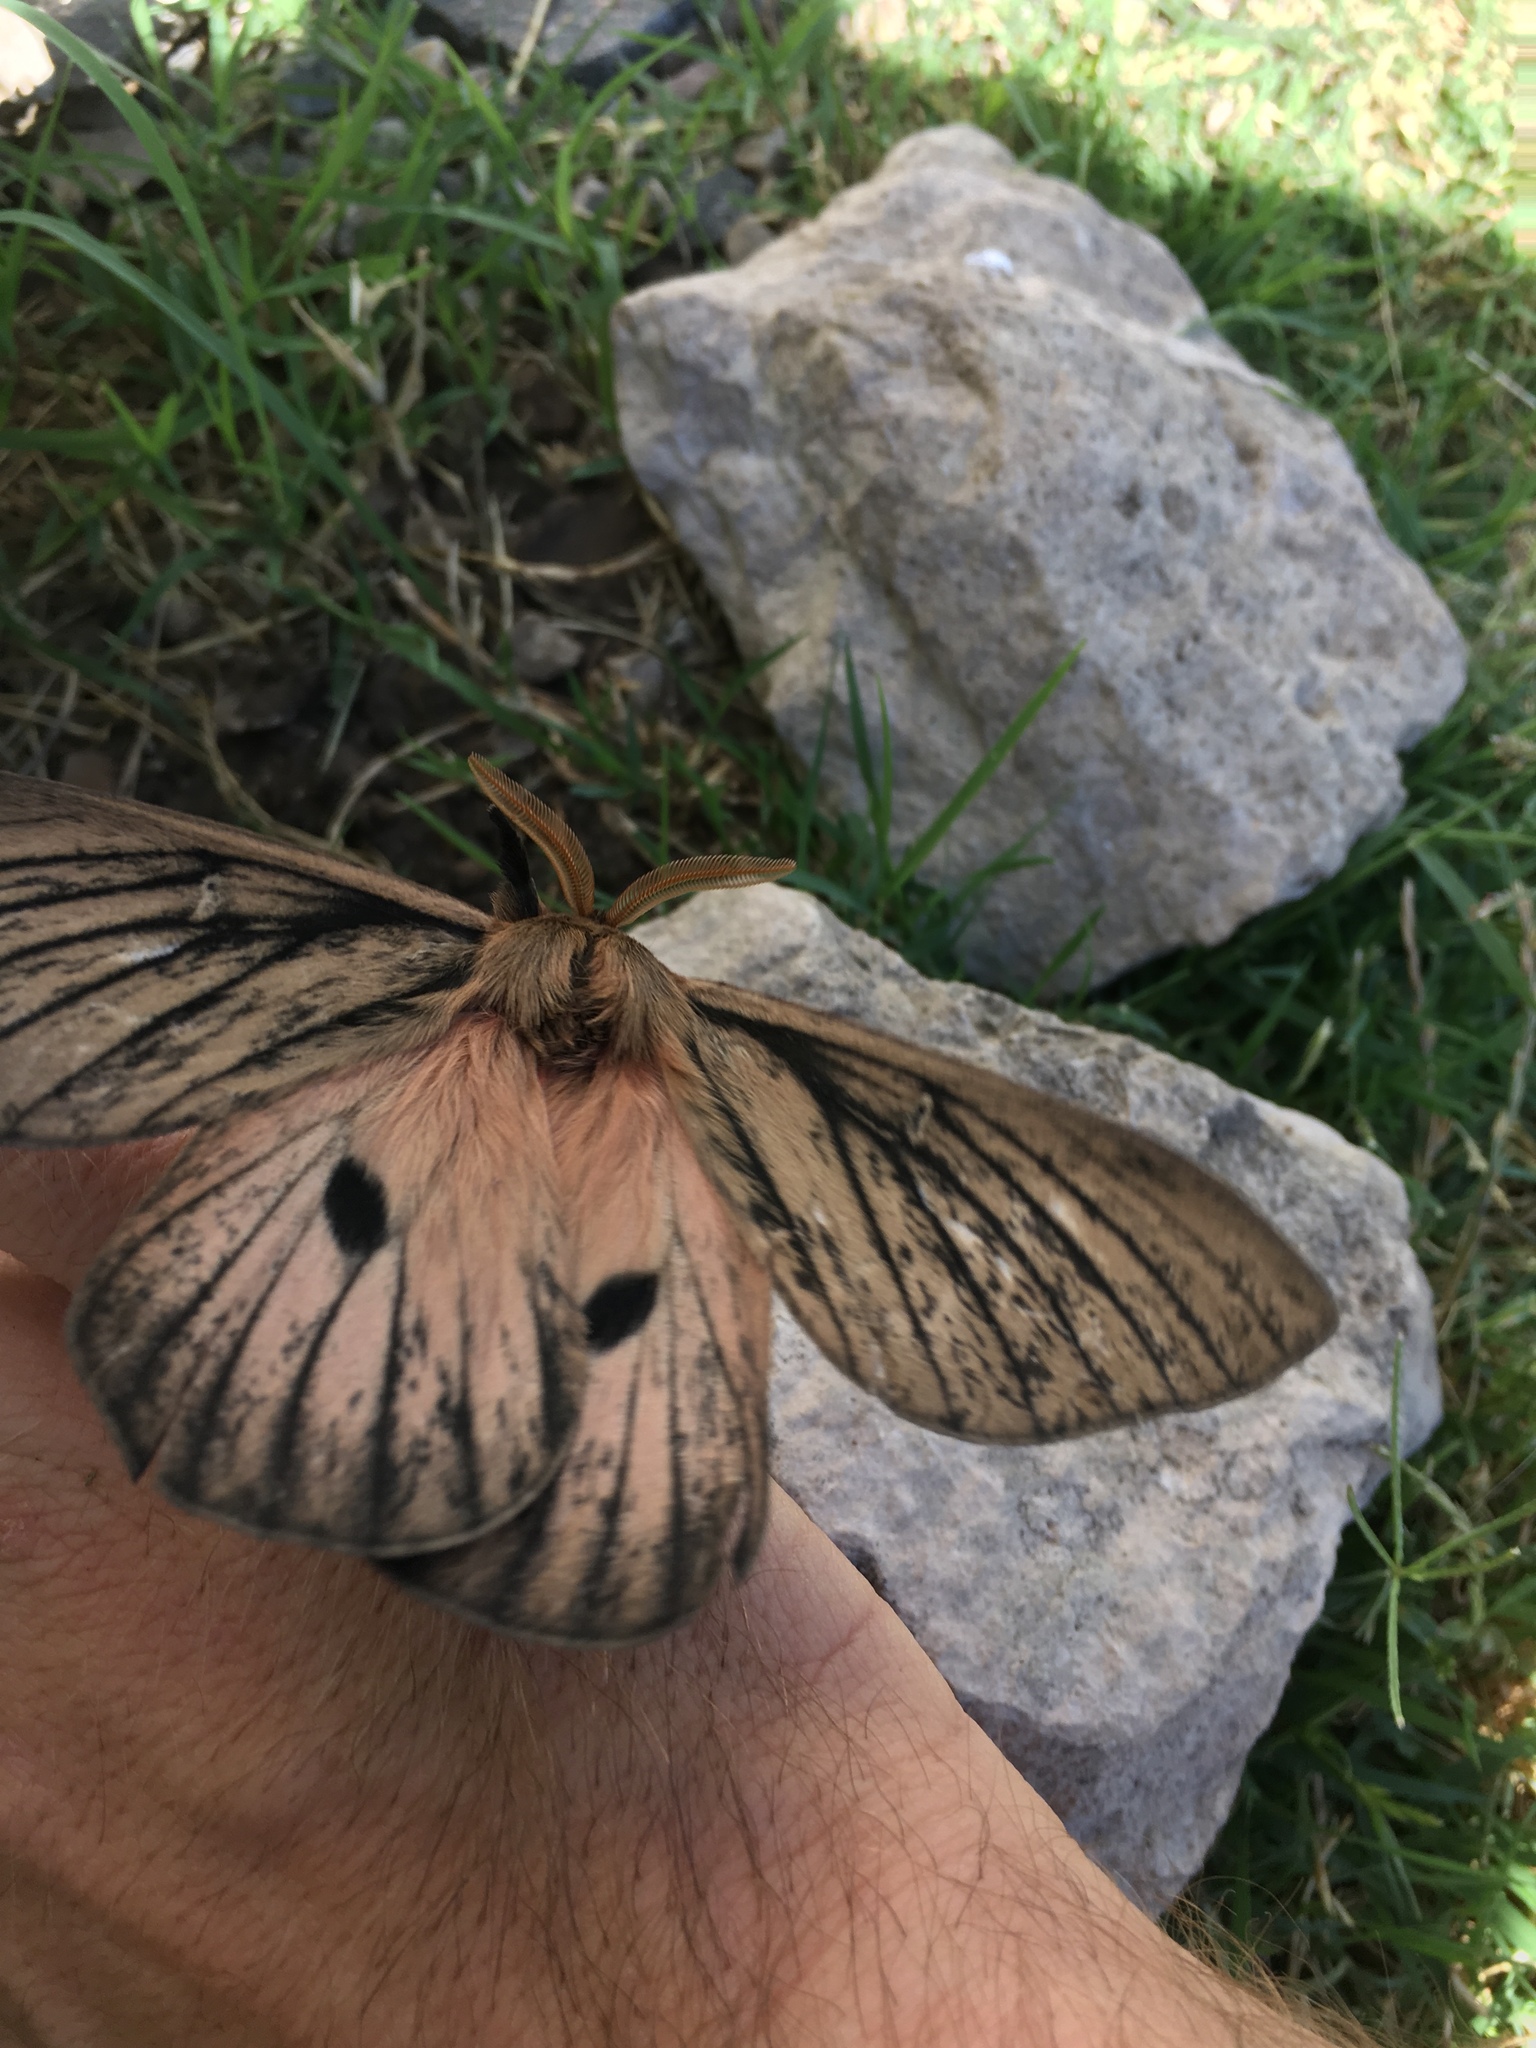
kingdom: Animalia
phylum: Arthropoda
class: Insecta
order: Lepidoptera
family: Saturniidae
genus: Eudyaria
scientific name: Eudyaria zeta
